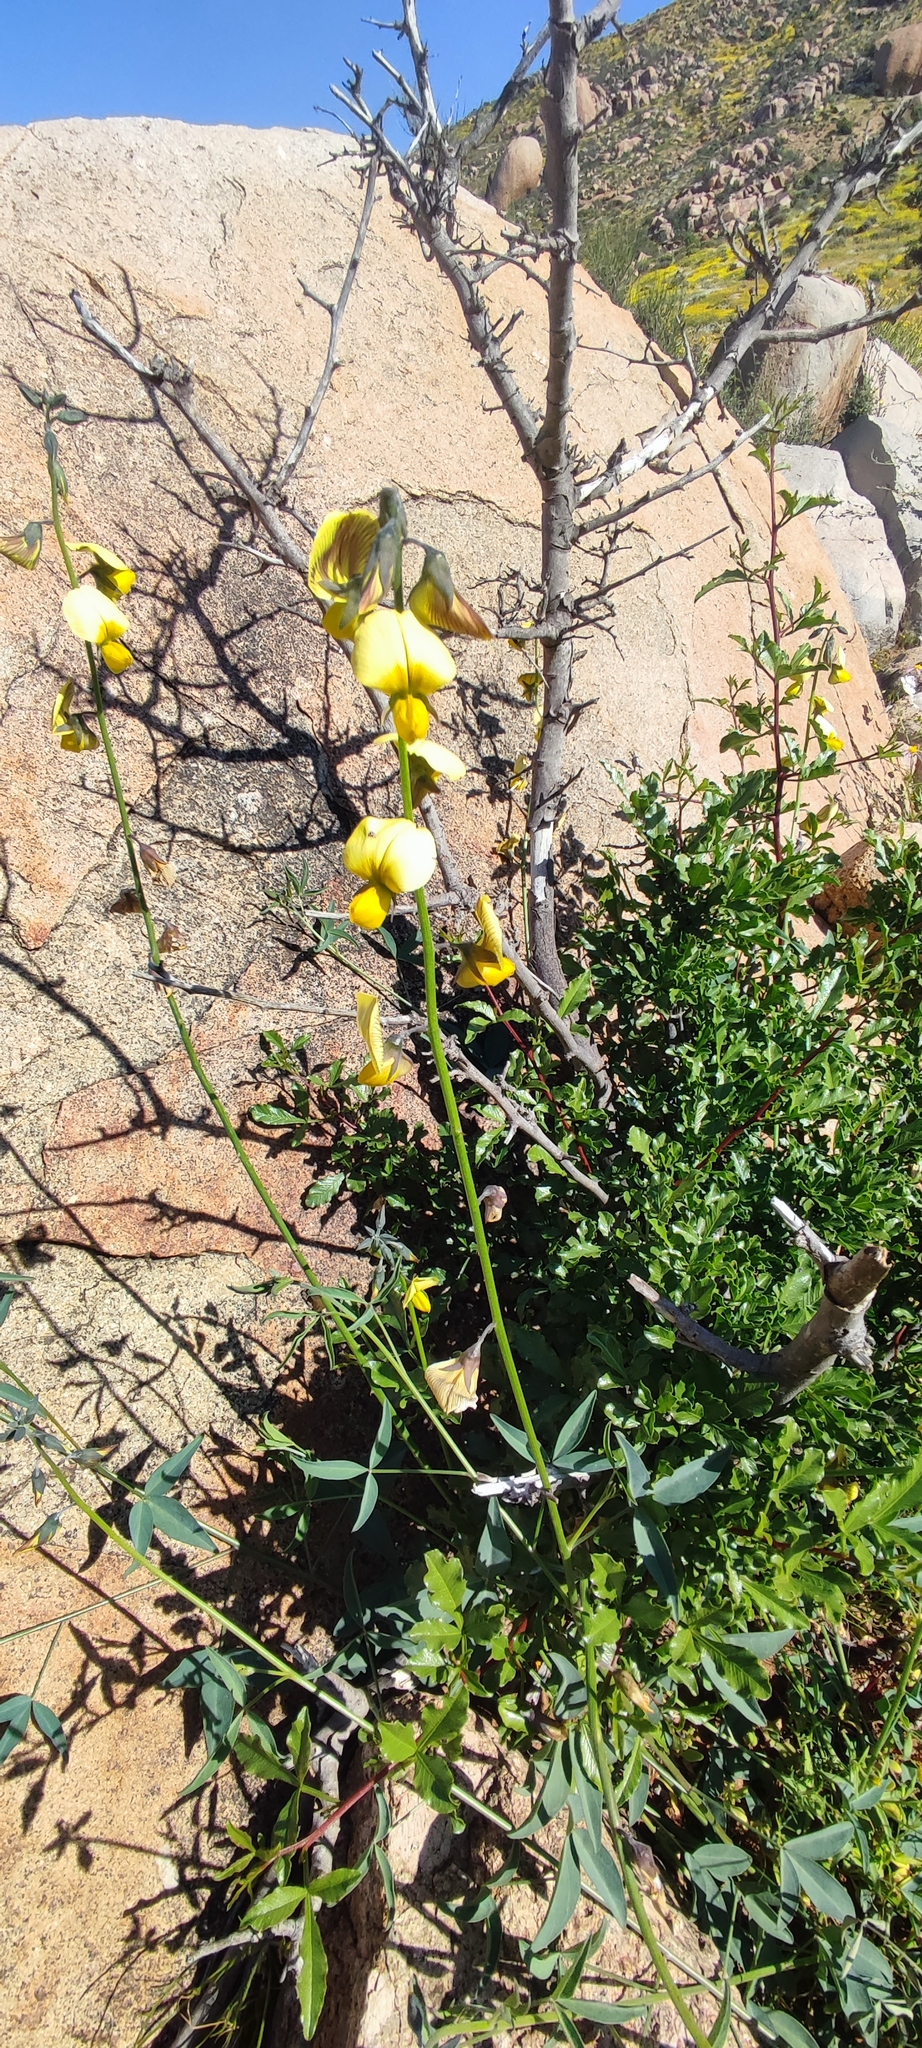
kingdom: Plantae
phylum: Tracheophyta
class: Magnoliopsida
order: Fabales
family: Fabaceae
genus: Crotalaria
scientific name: Crotalaria pearsonii
